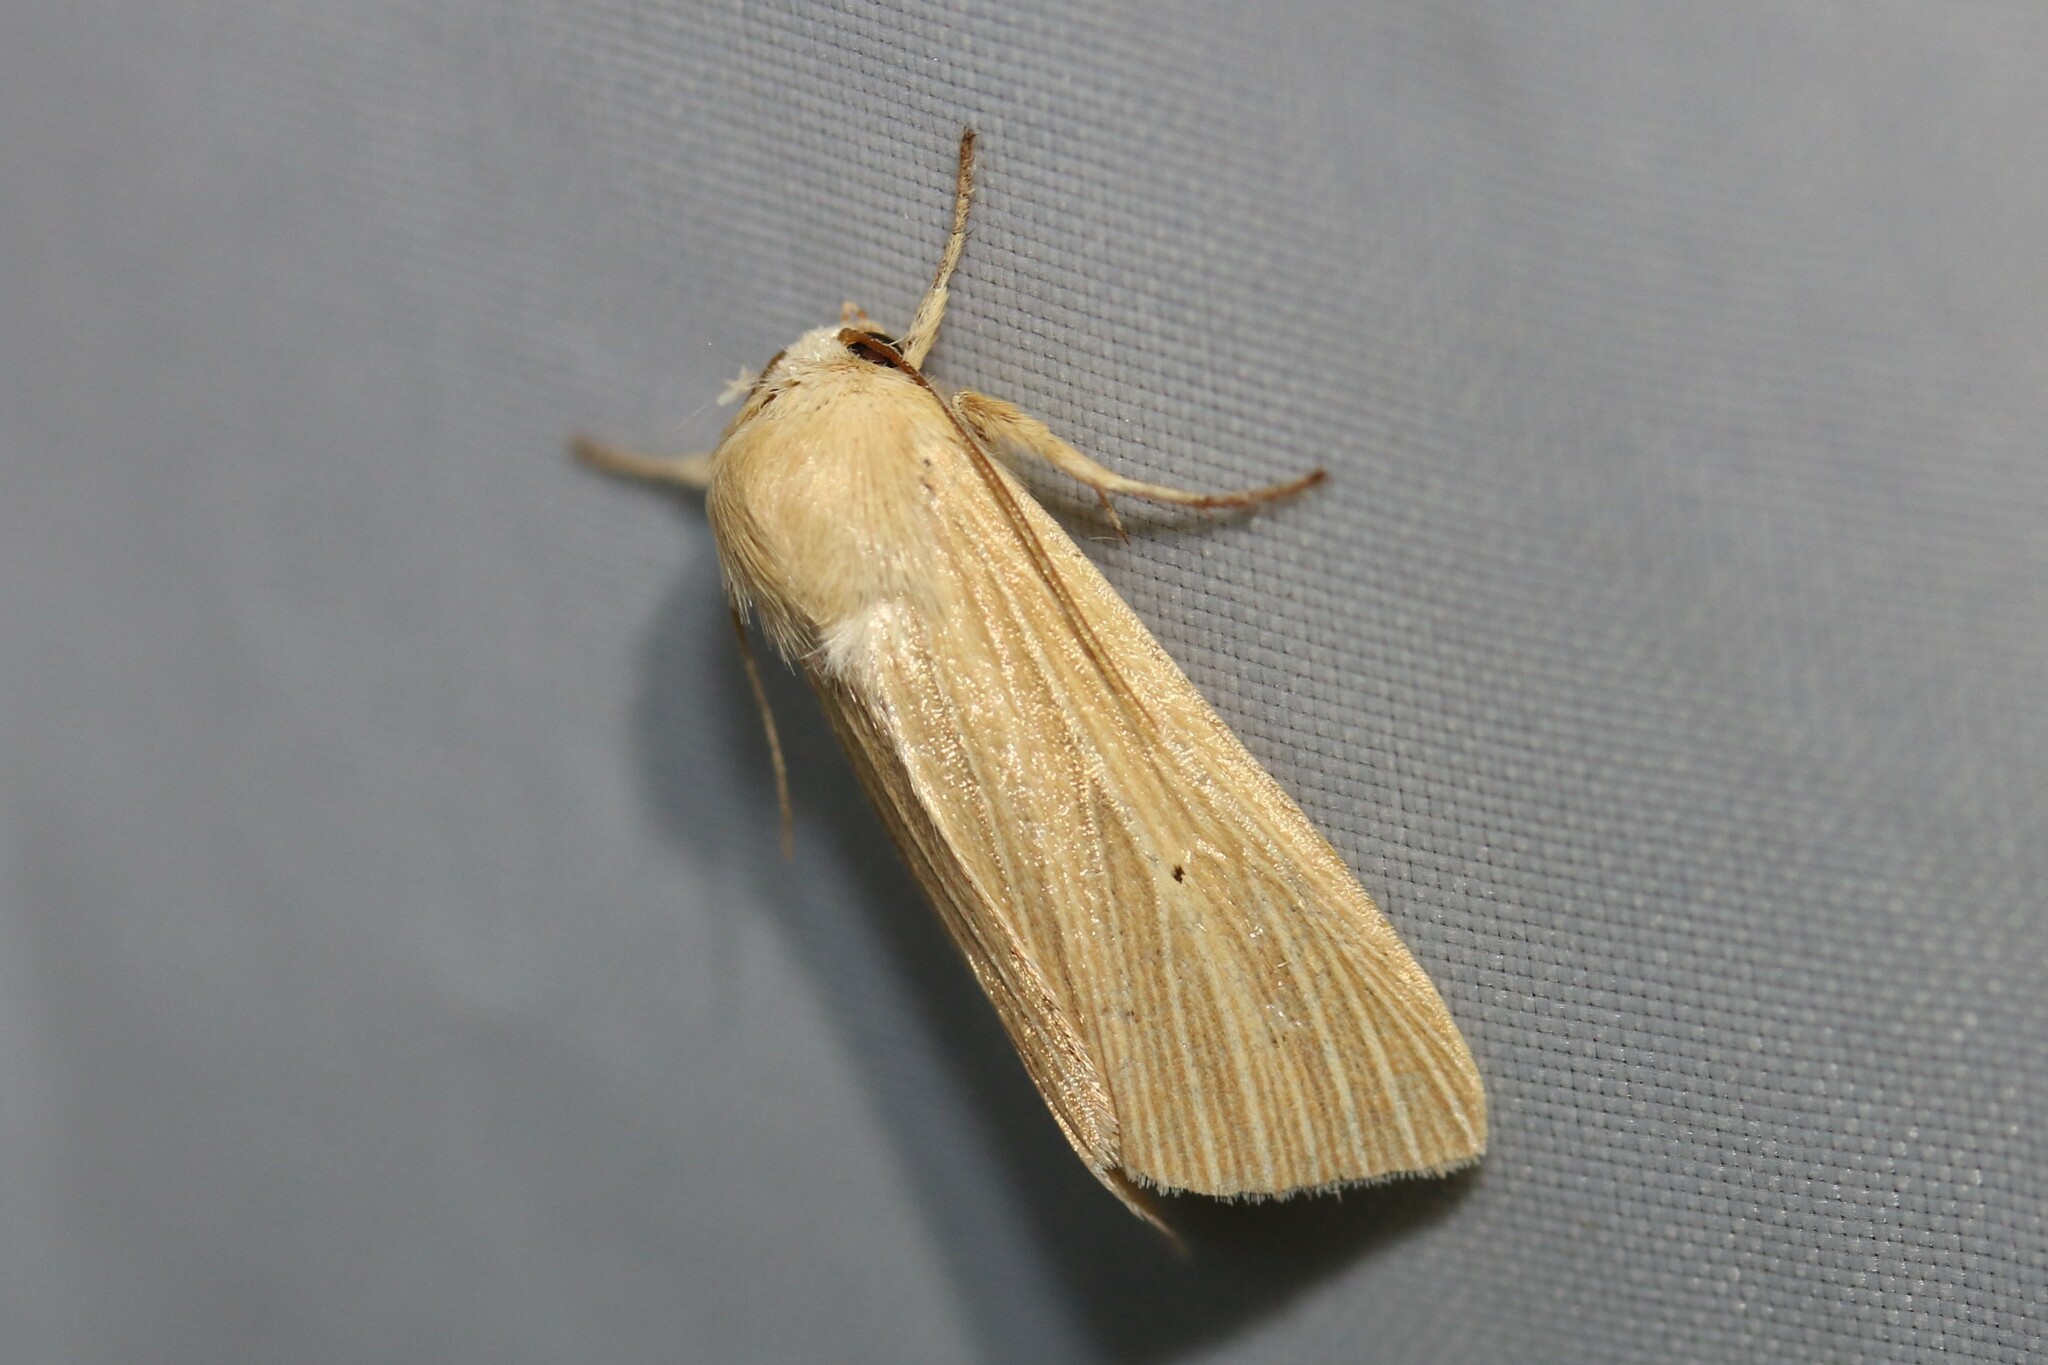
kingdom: Animalia
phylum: Arthropoda
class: Insecta
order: Lepidoptera
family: Noctuidae
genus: Mythimna
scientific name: Mythimna pallens
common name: Common wainscot
